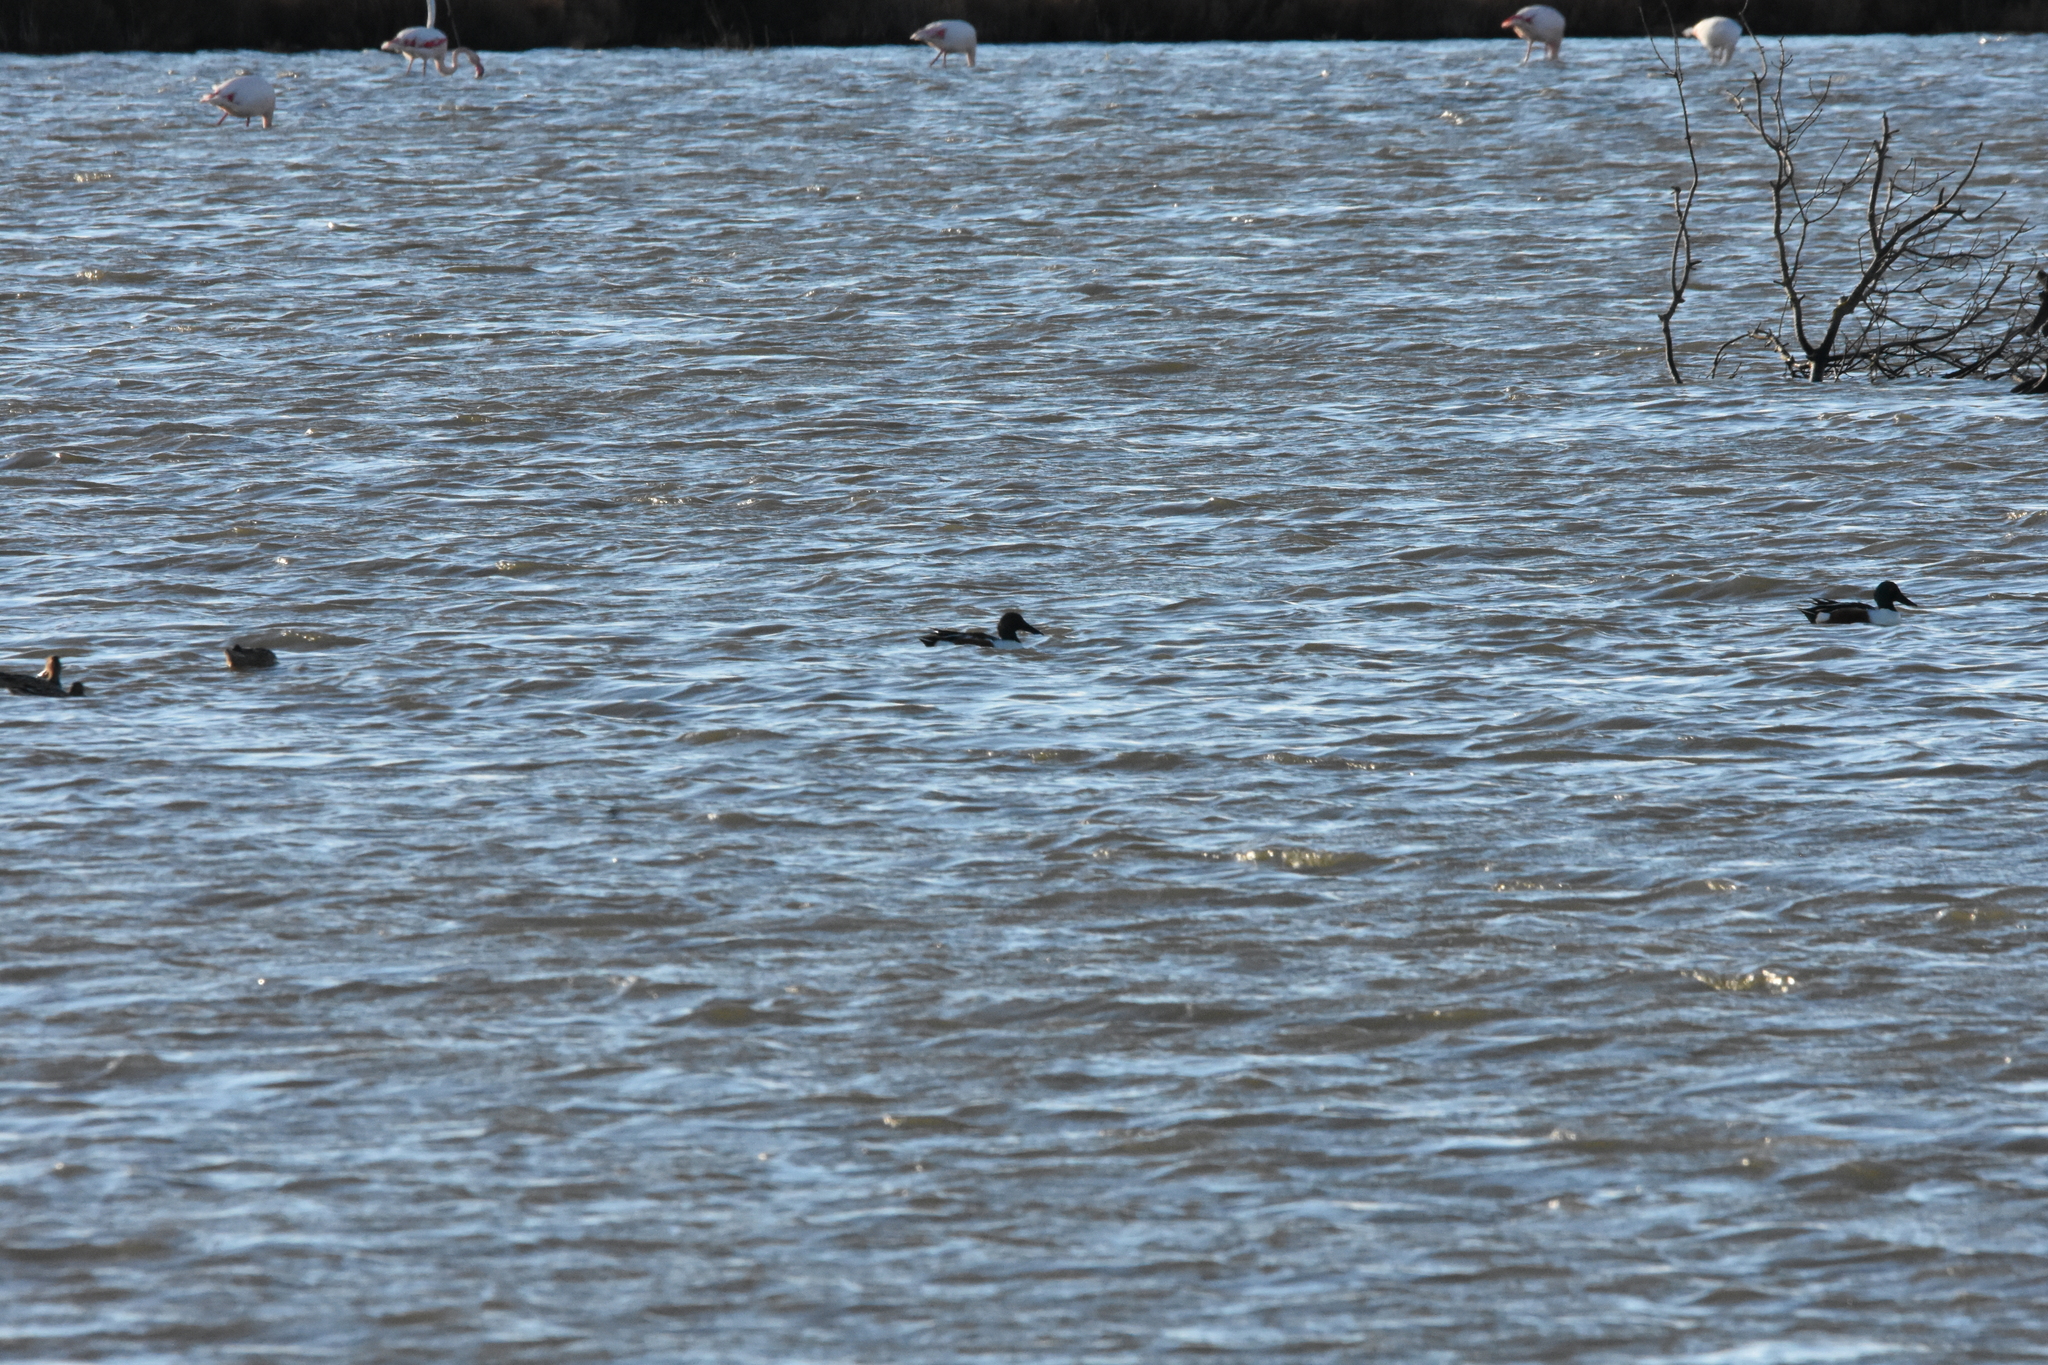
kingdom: Animalia
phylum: Chordata
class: Aves
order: Anseriformes
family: Anatidae
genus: Spatula
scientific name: Spatula clypeata
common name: Northern shoveler
